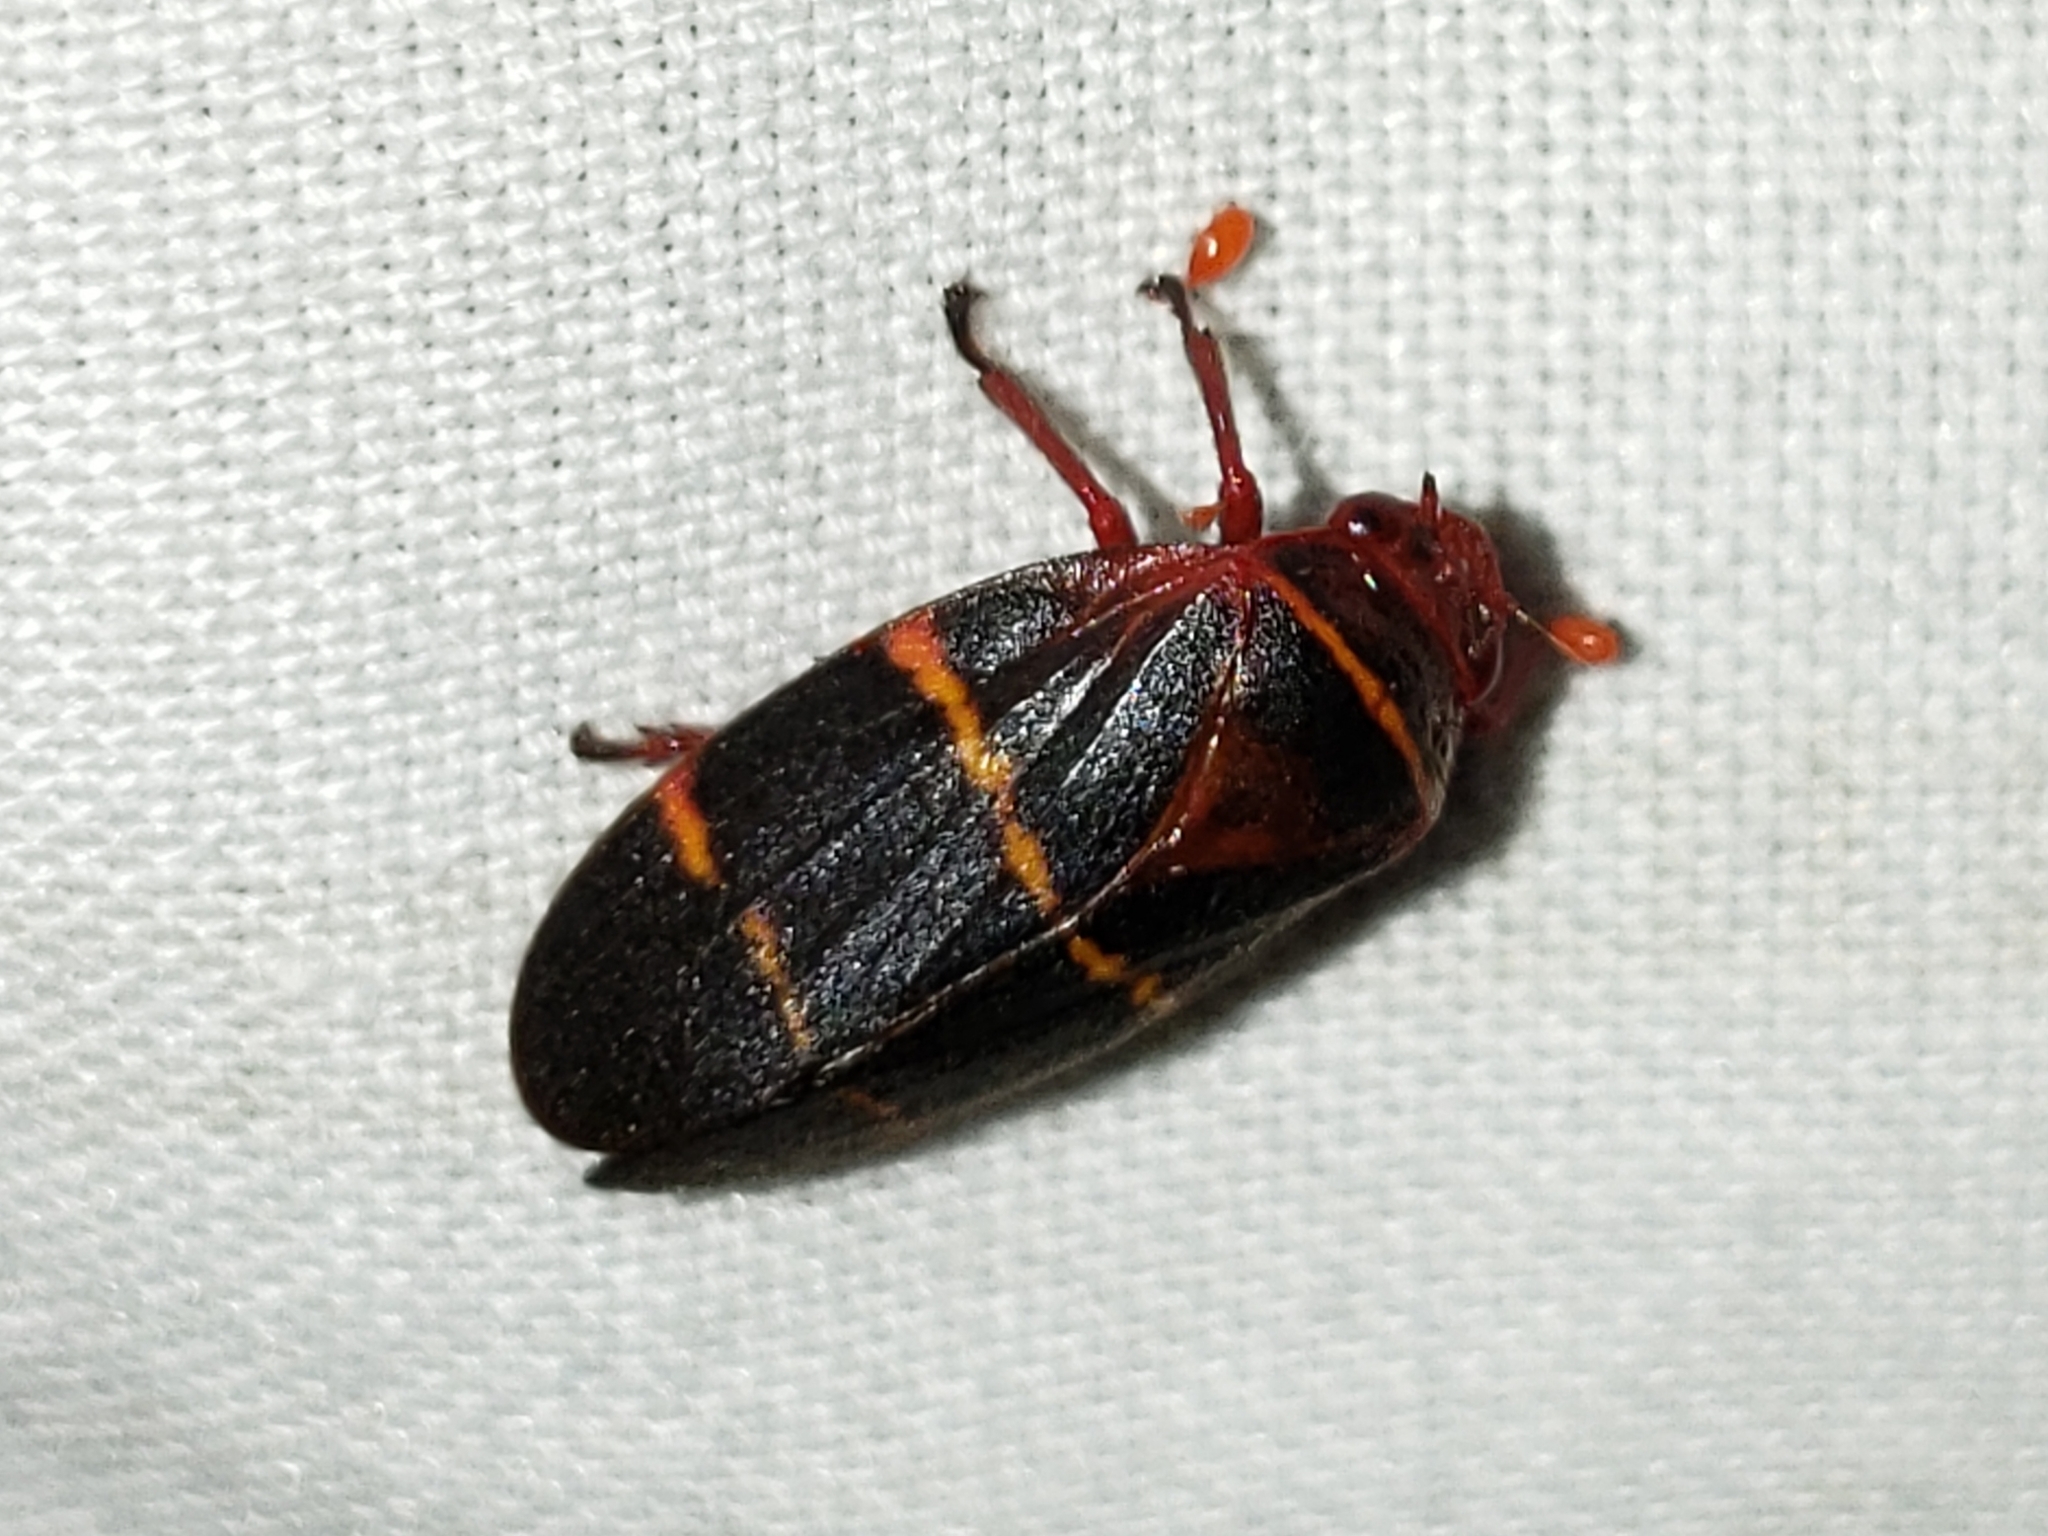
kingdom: Animalia
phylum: Arthropoda
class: Insecta
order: Hemiptera
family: Cercopidae
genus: Prosapia
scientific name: Prosapia bicincta
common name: Twolined spittlebug
